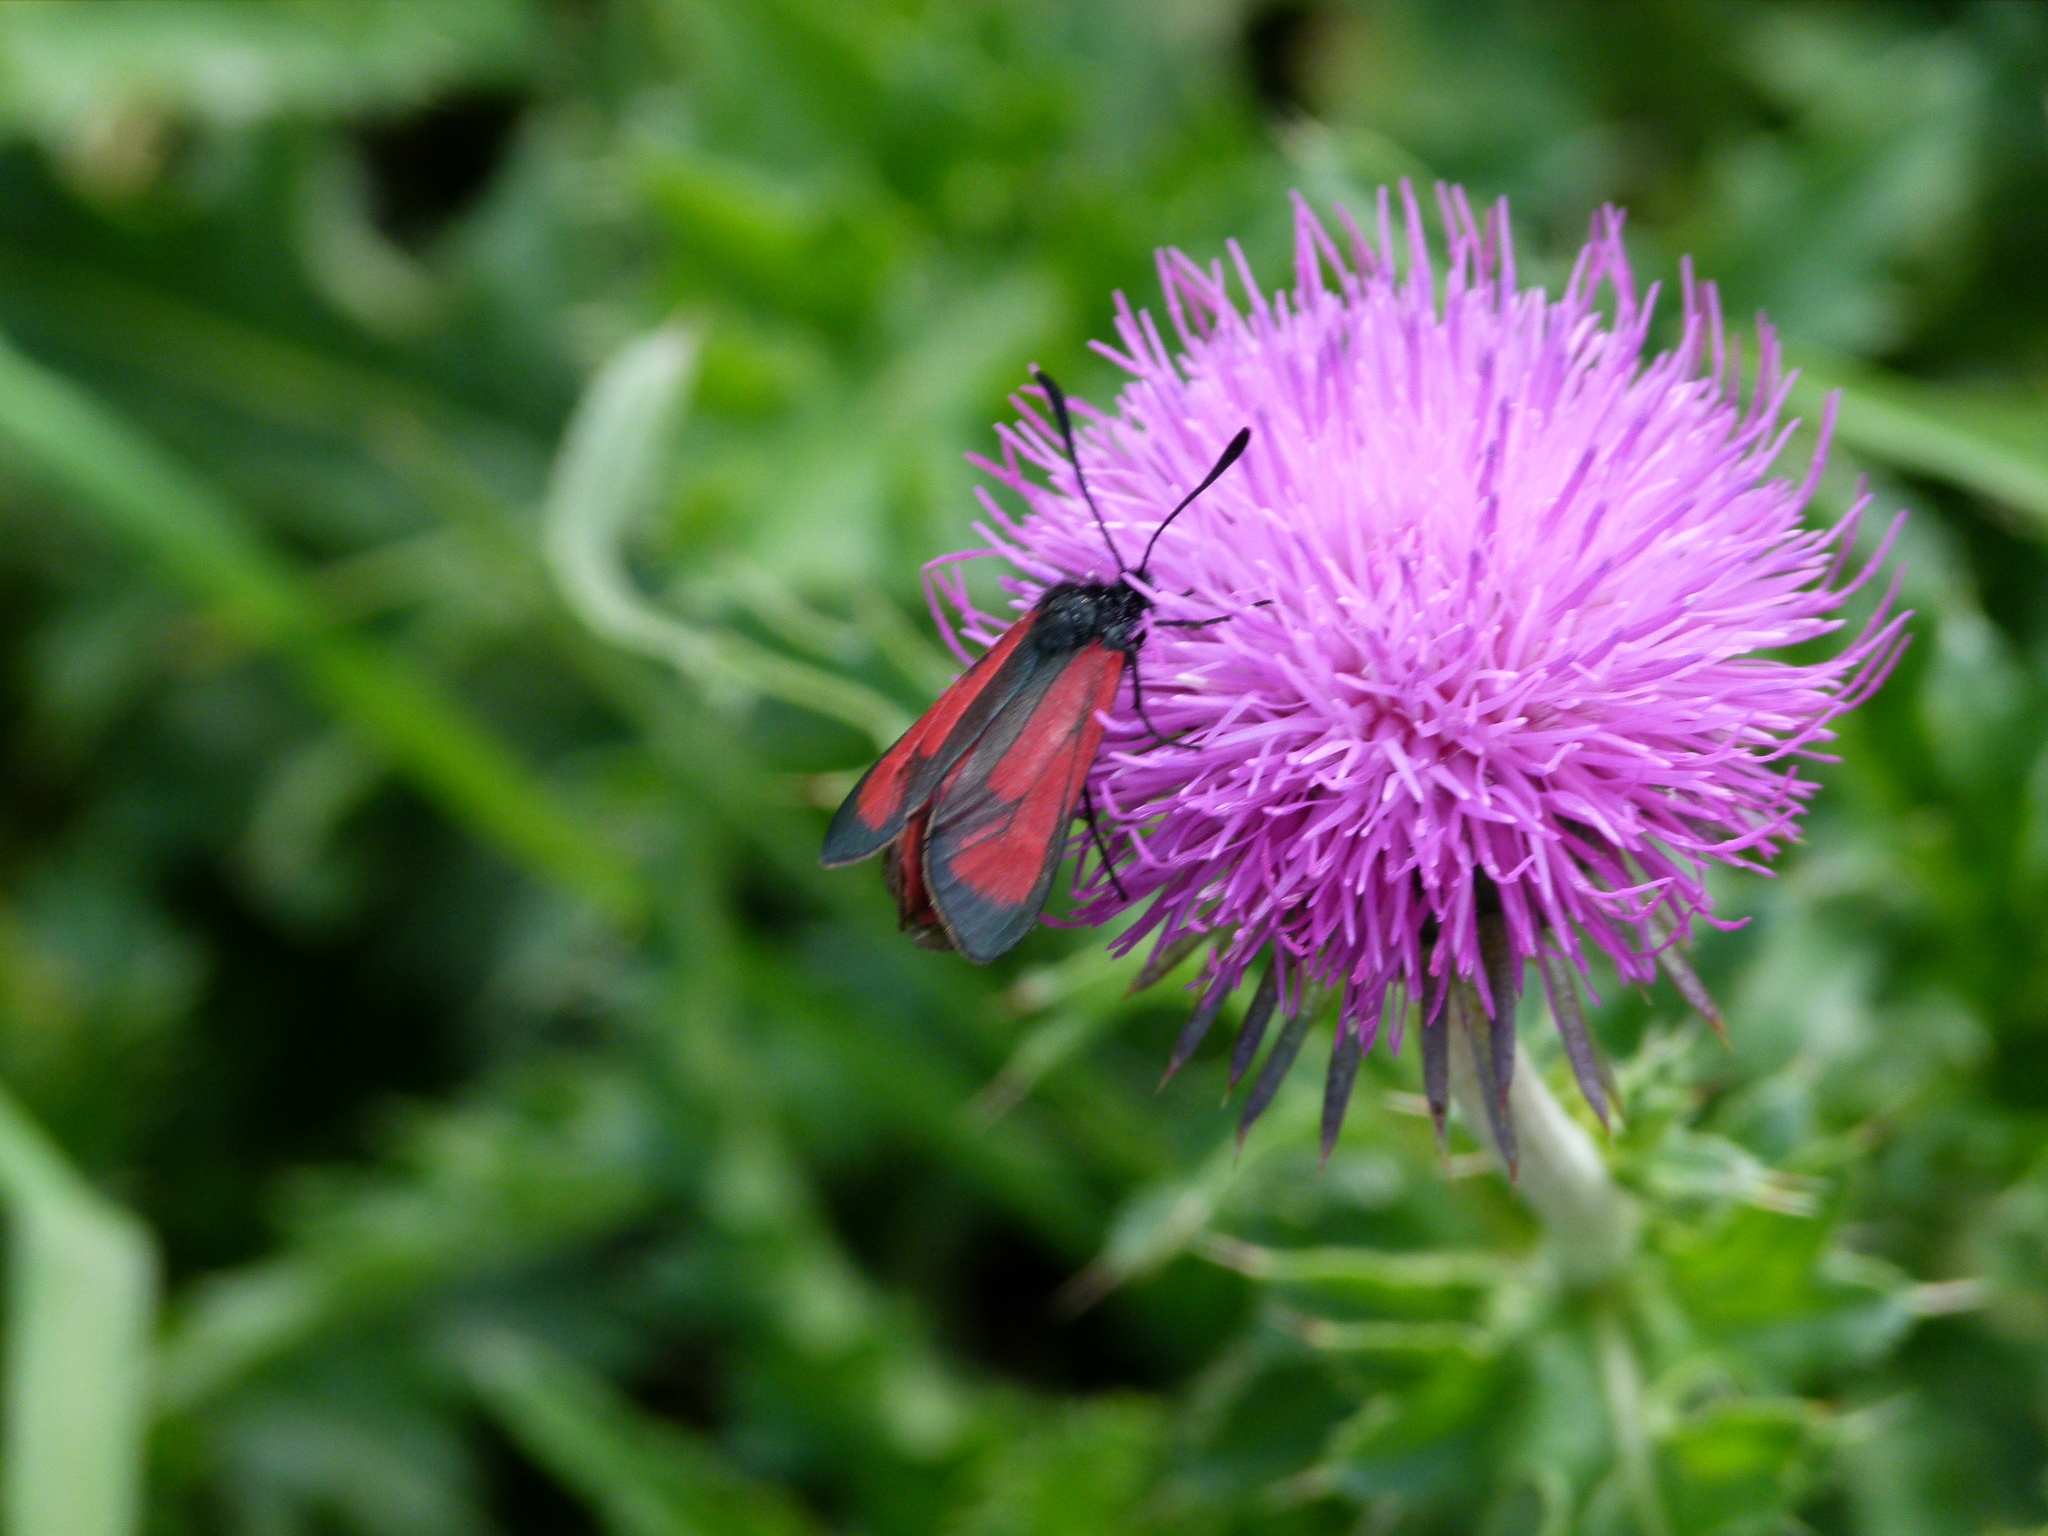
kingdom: Animalia
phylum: Arthropoda
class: Insecta
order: Lepidoptera
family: Zygaenidae
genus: Zygaena
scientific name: Zygaena purpuralis
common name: Transparent burnet
